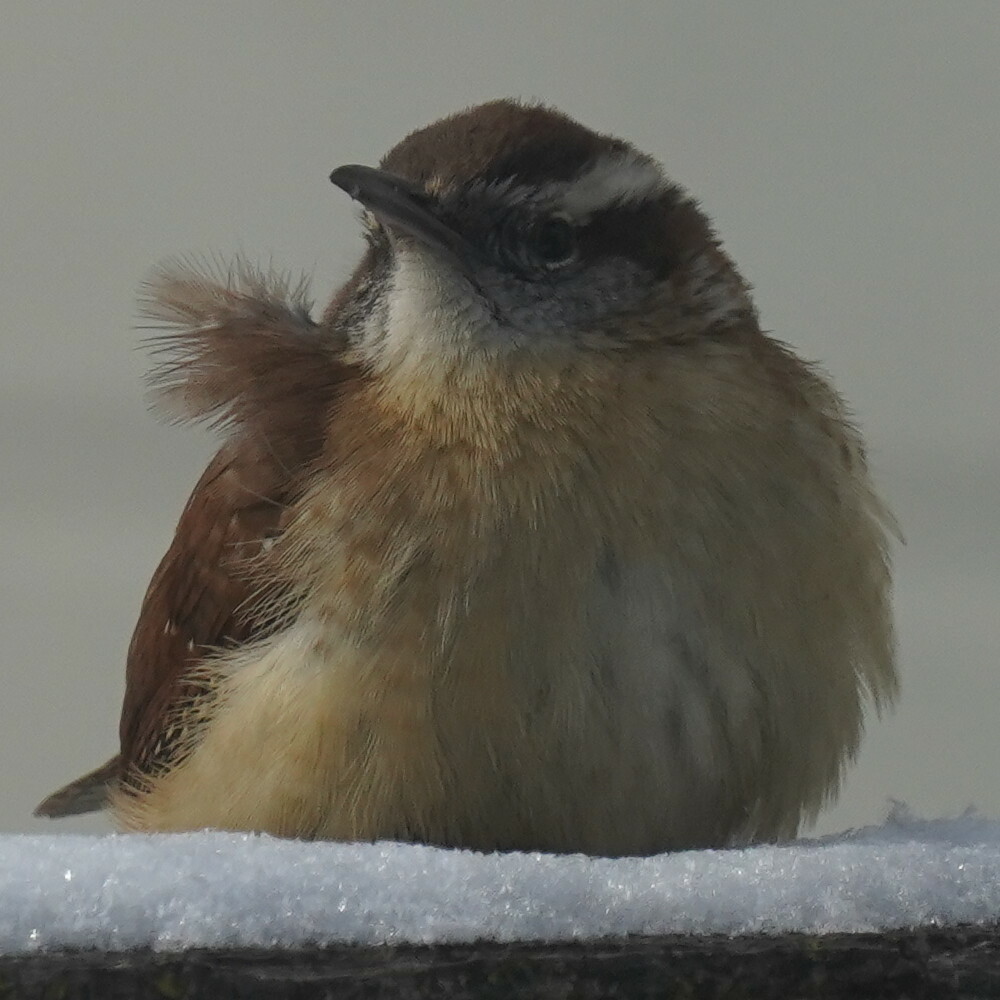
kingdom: Animalia
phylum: Chordata
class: Aves
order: Passeriformes
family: Troglodytidae
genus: Thryothorus
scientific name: Thryothorus ludovicianus
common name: Carolina wren
